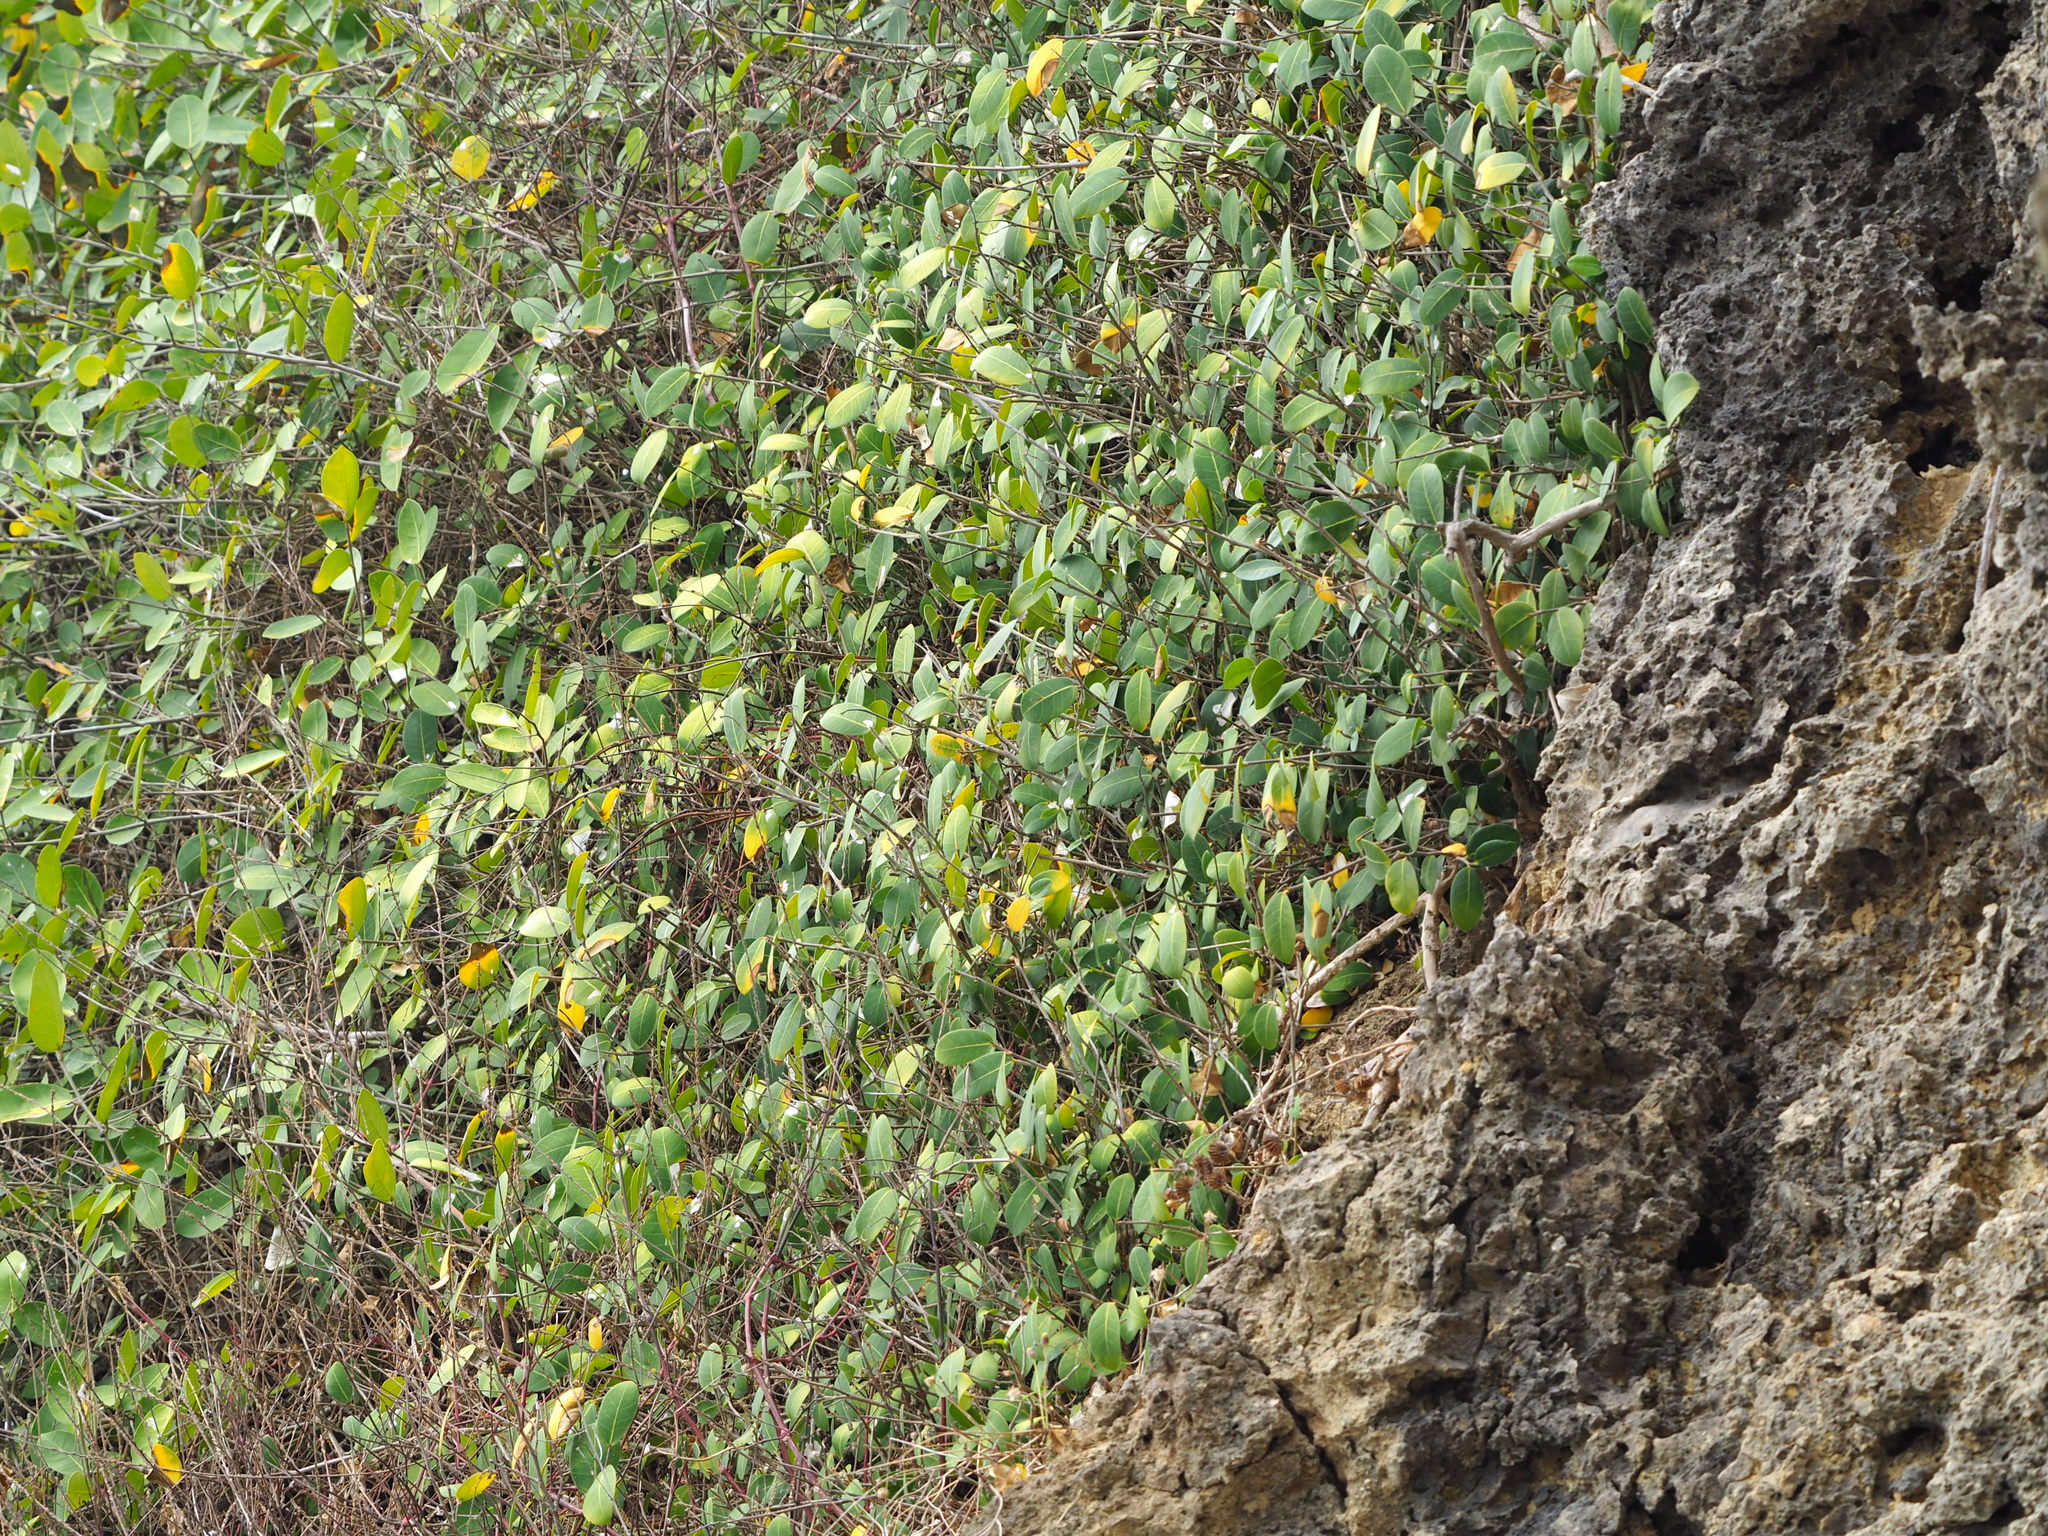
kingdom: Plantae
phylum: Tracheophyta
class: Magnoliopsida
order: Rosales
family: Moraceae
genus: Ficus
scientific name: Ficus tinctoria
